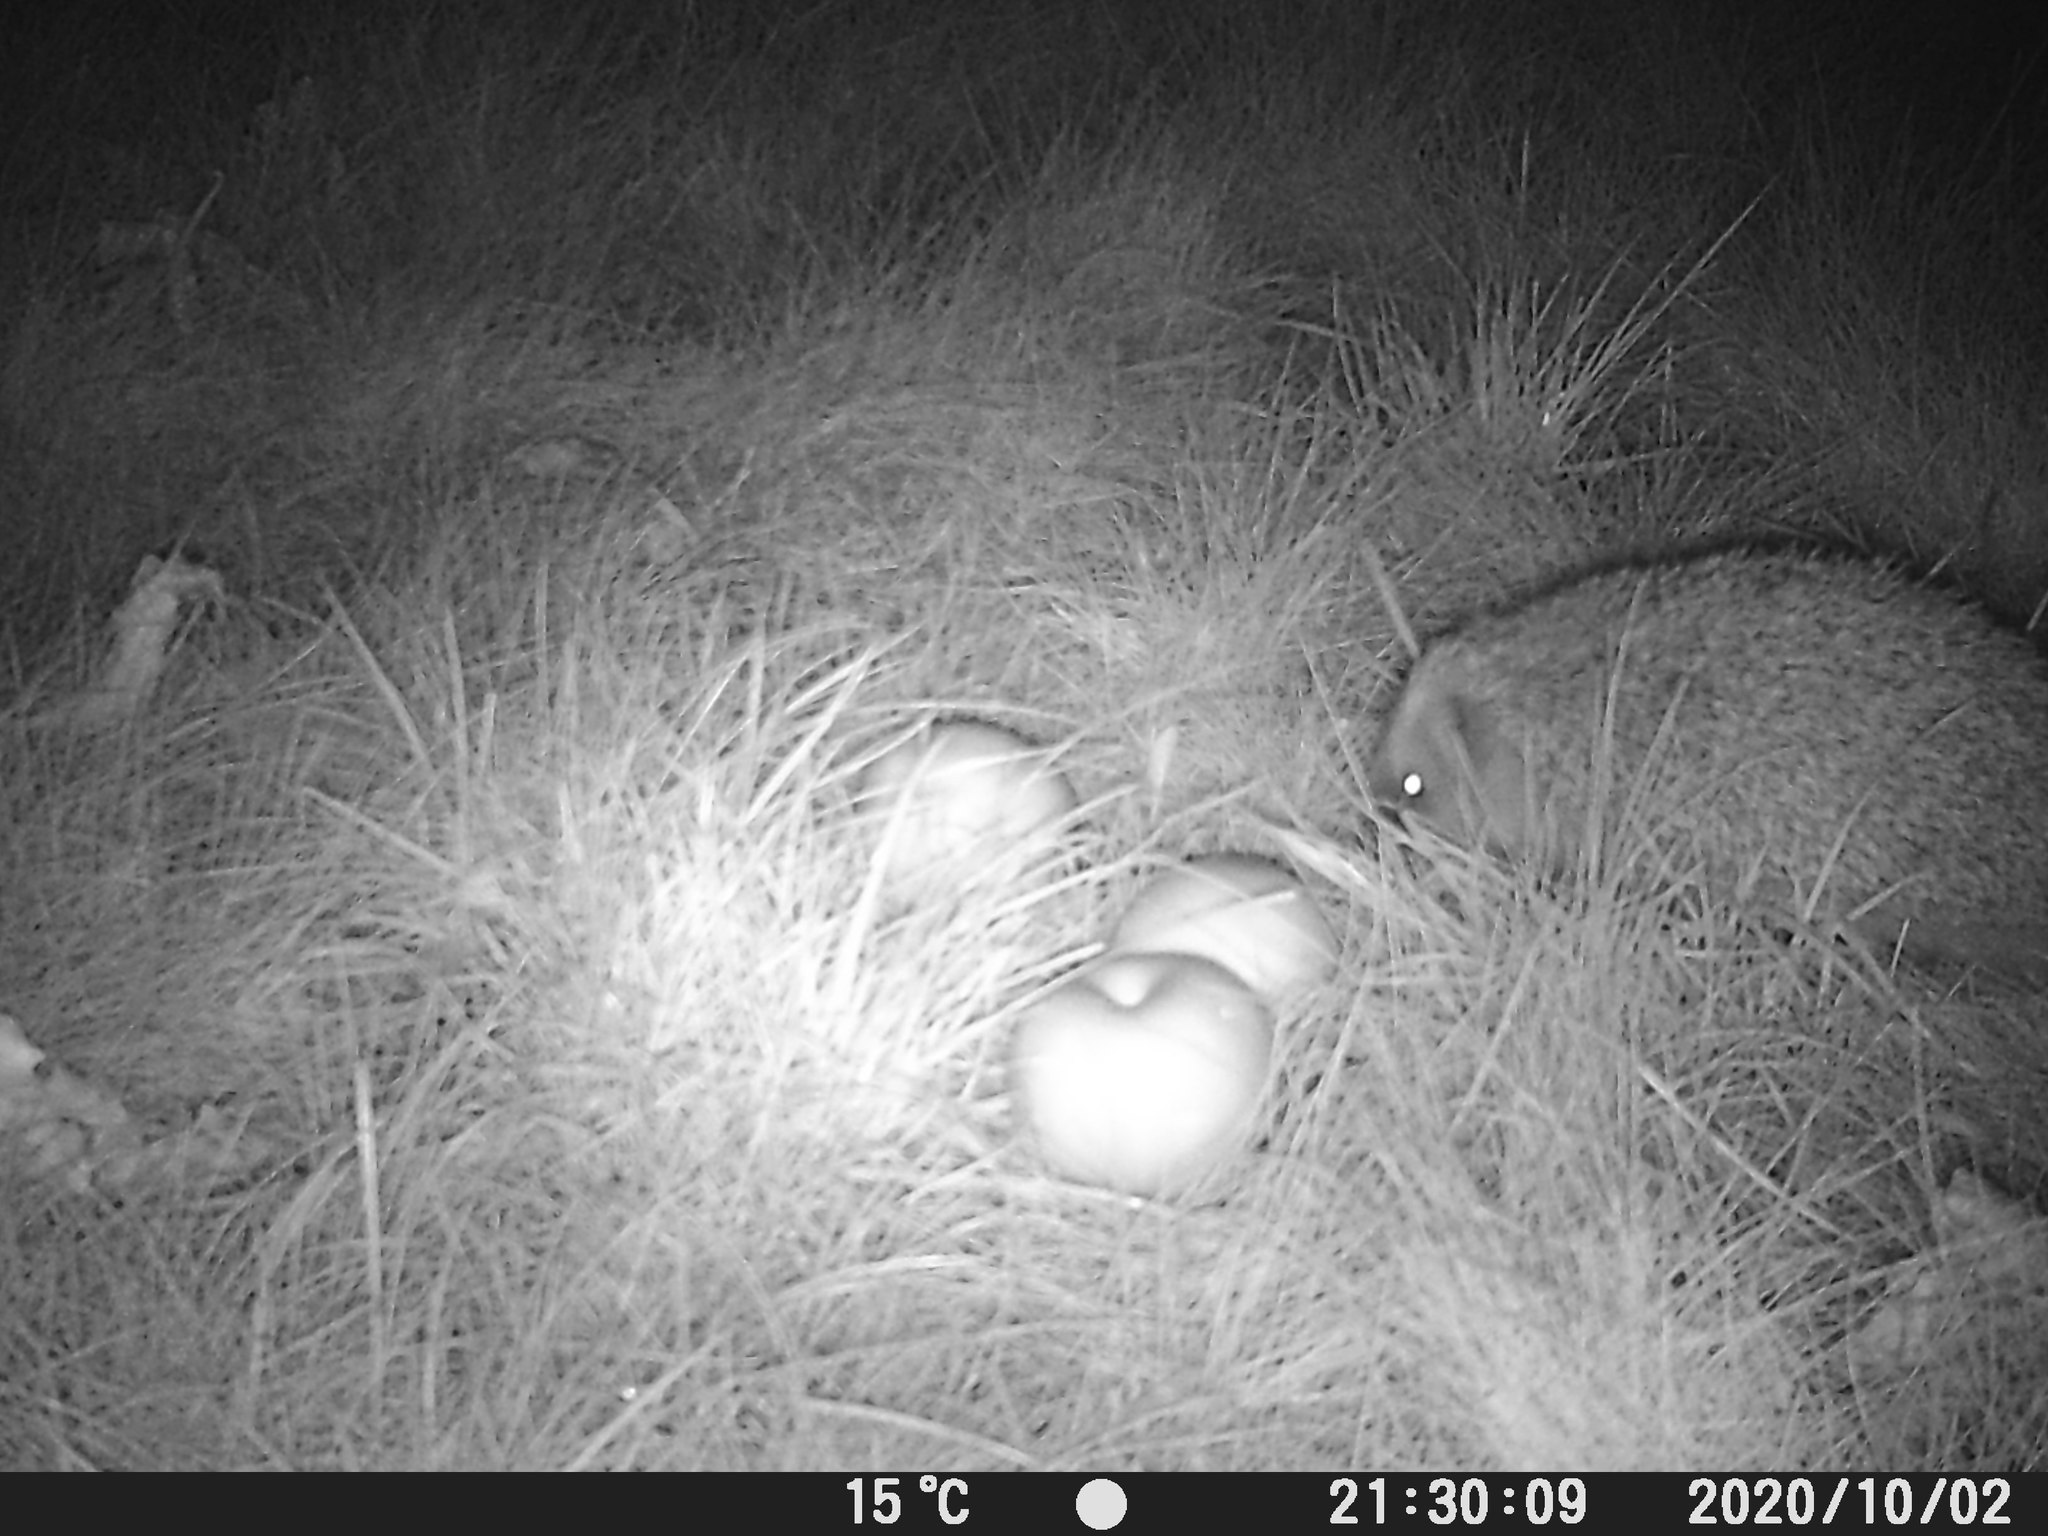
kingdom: Animalia
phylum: Chordata
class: Mammalia
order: Erinaceomorpha
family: Erinaceidae
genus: Erinaceus
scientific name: Erinaceus europaeus
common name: West european hedgehog
